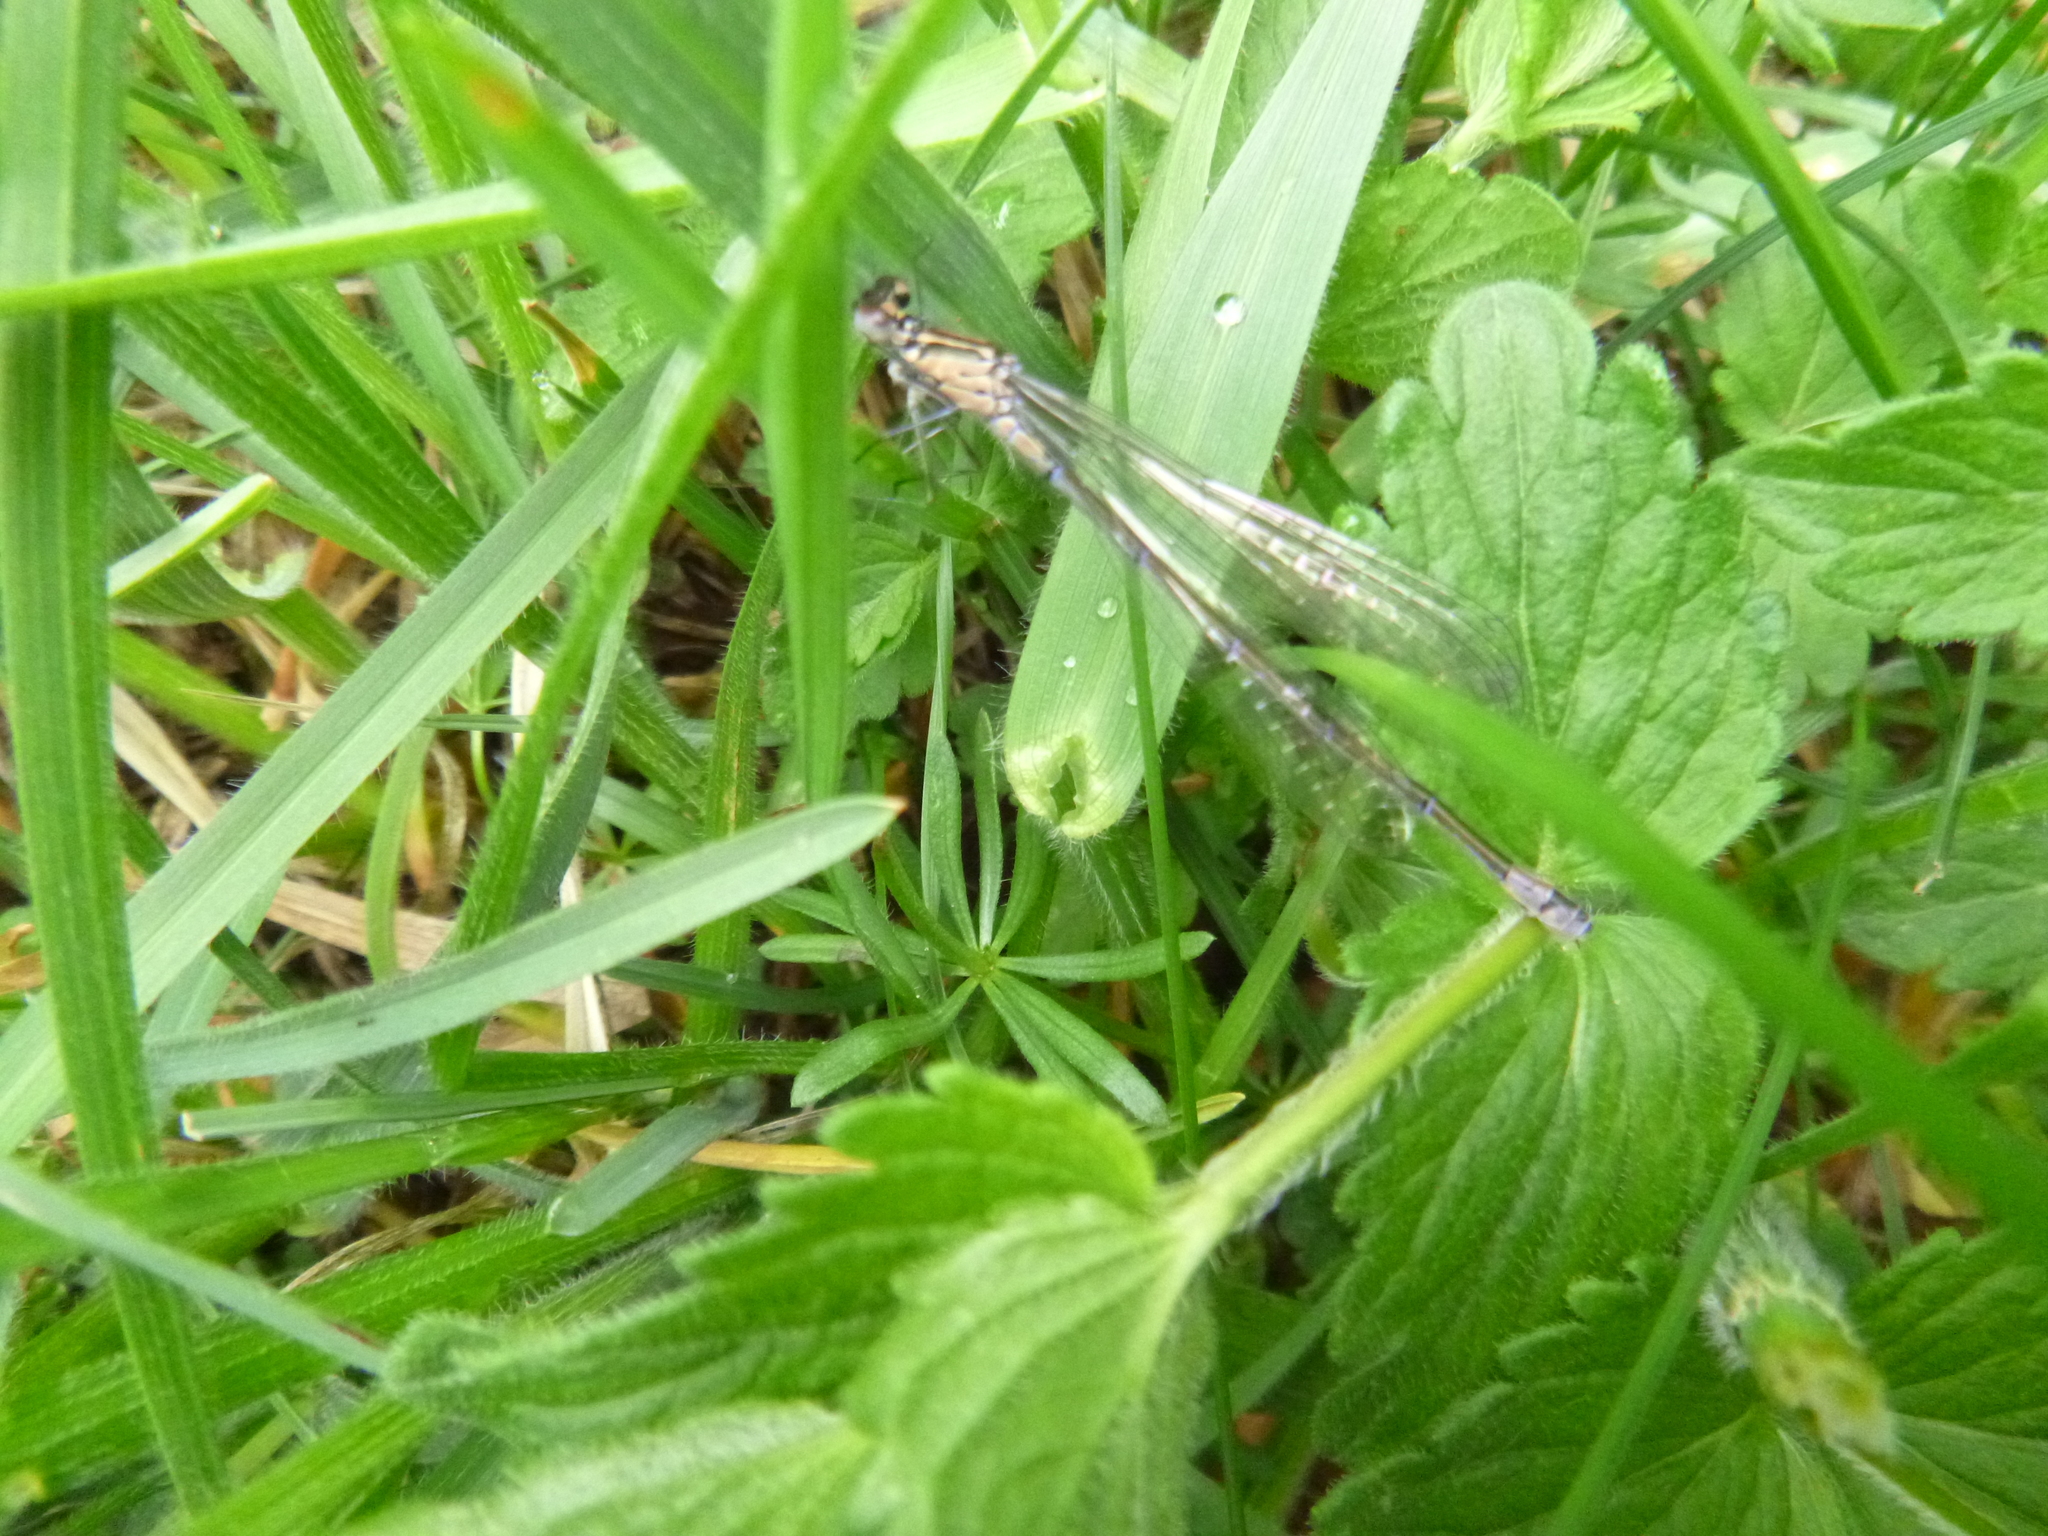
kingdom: Animalia
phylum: Arthropoda
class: Insecta
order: Odonata
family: Coenagrionidae
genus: Coenagrion
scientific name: Coenagrion pulchellum
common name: Variable bluet
